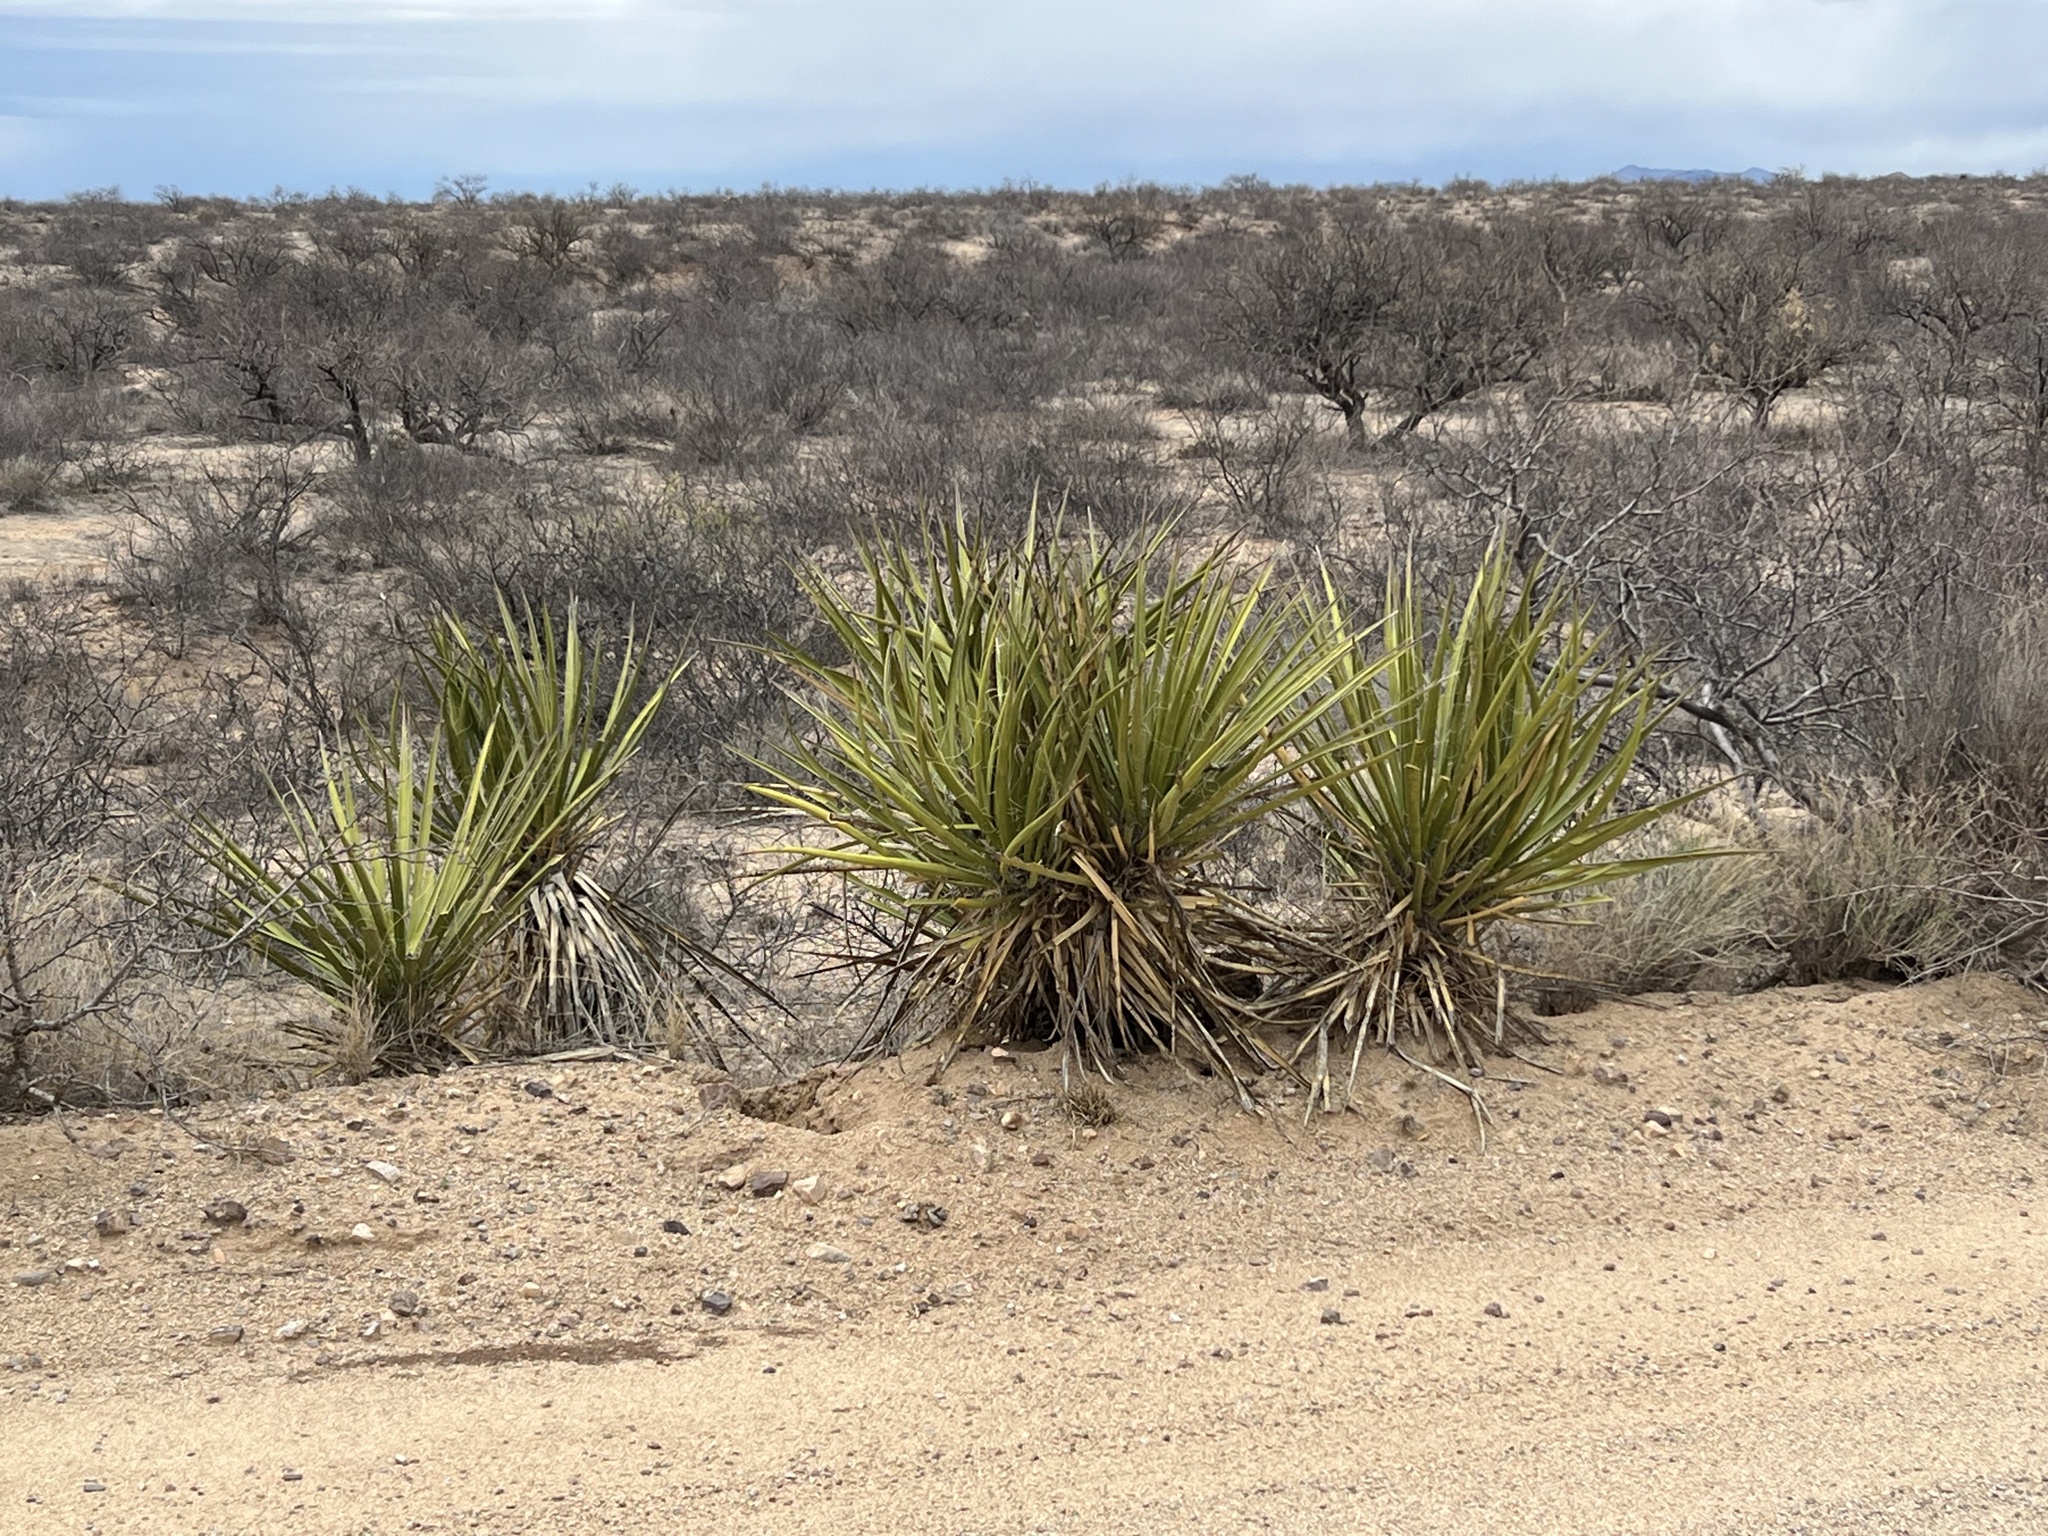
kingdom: Plantae
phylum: Tracheophyta
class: Liliopsida
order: Asparagales
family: Asparagaceae
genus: Yucca
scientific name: Yucca baccata
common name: Banana yucca
